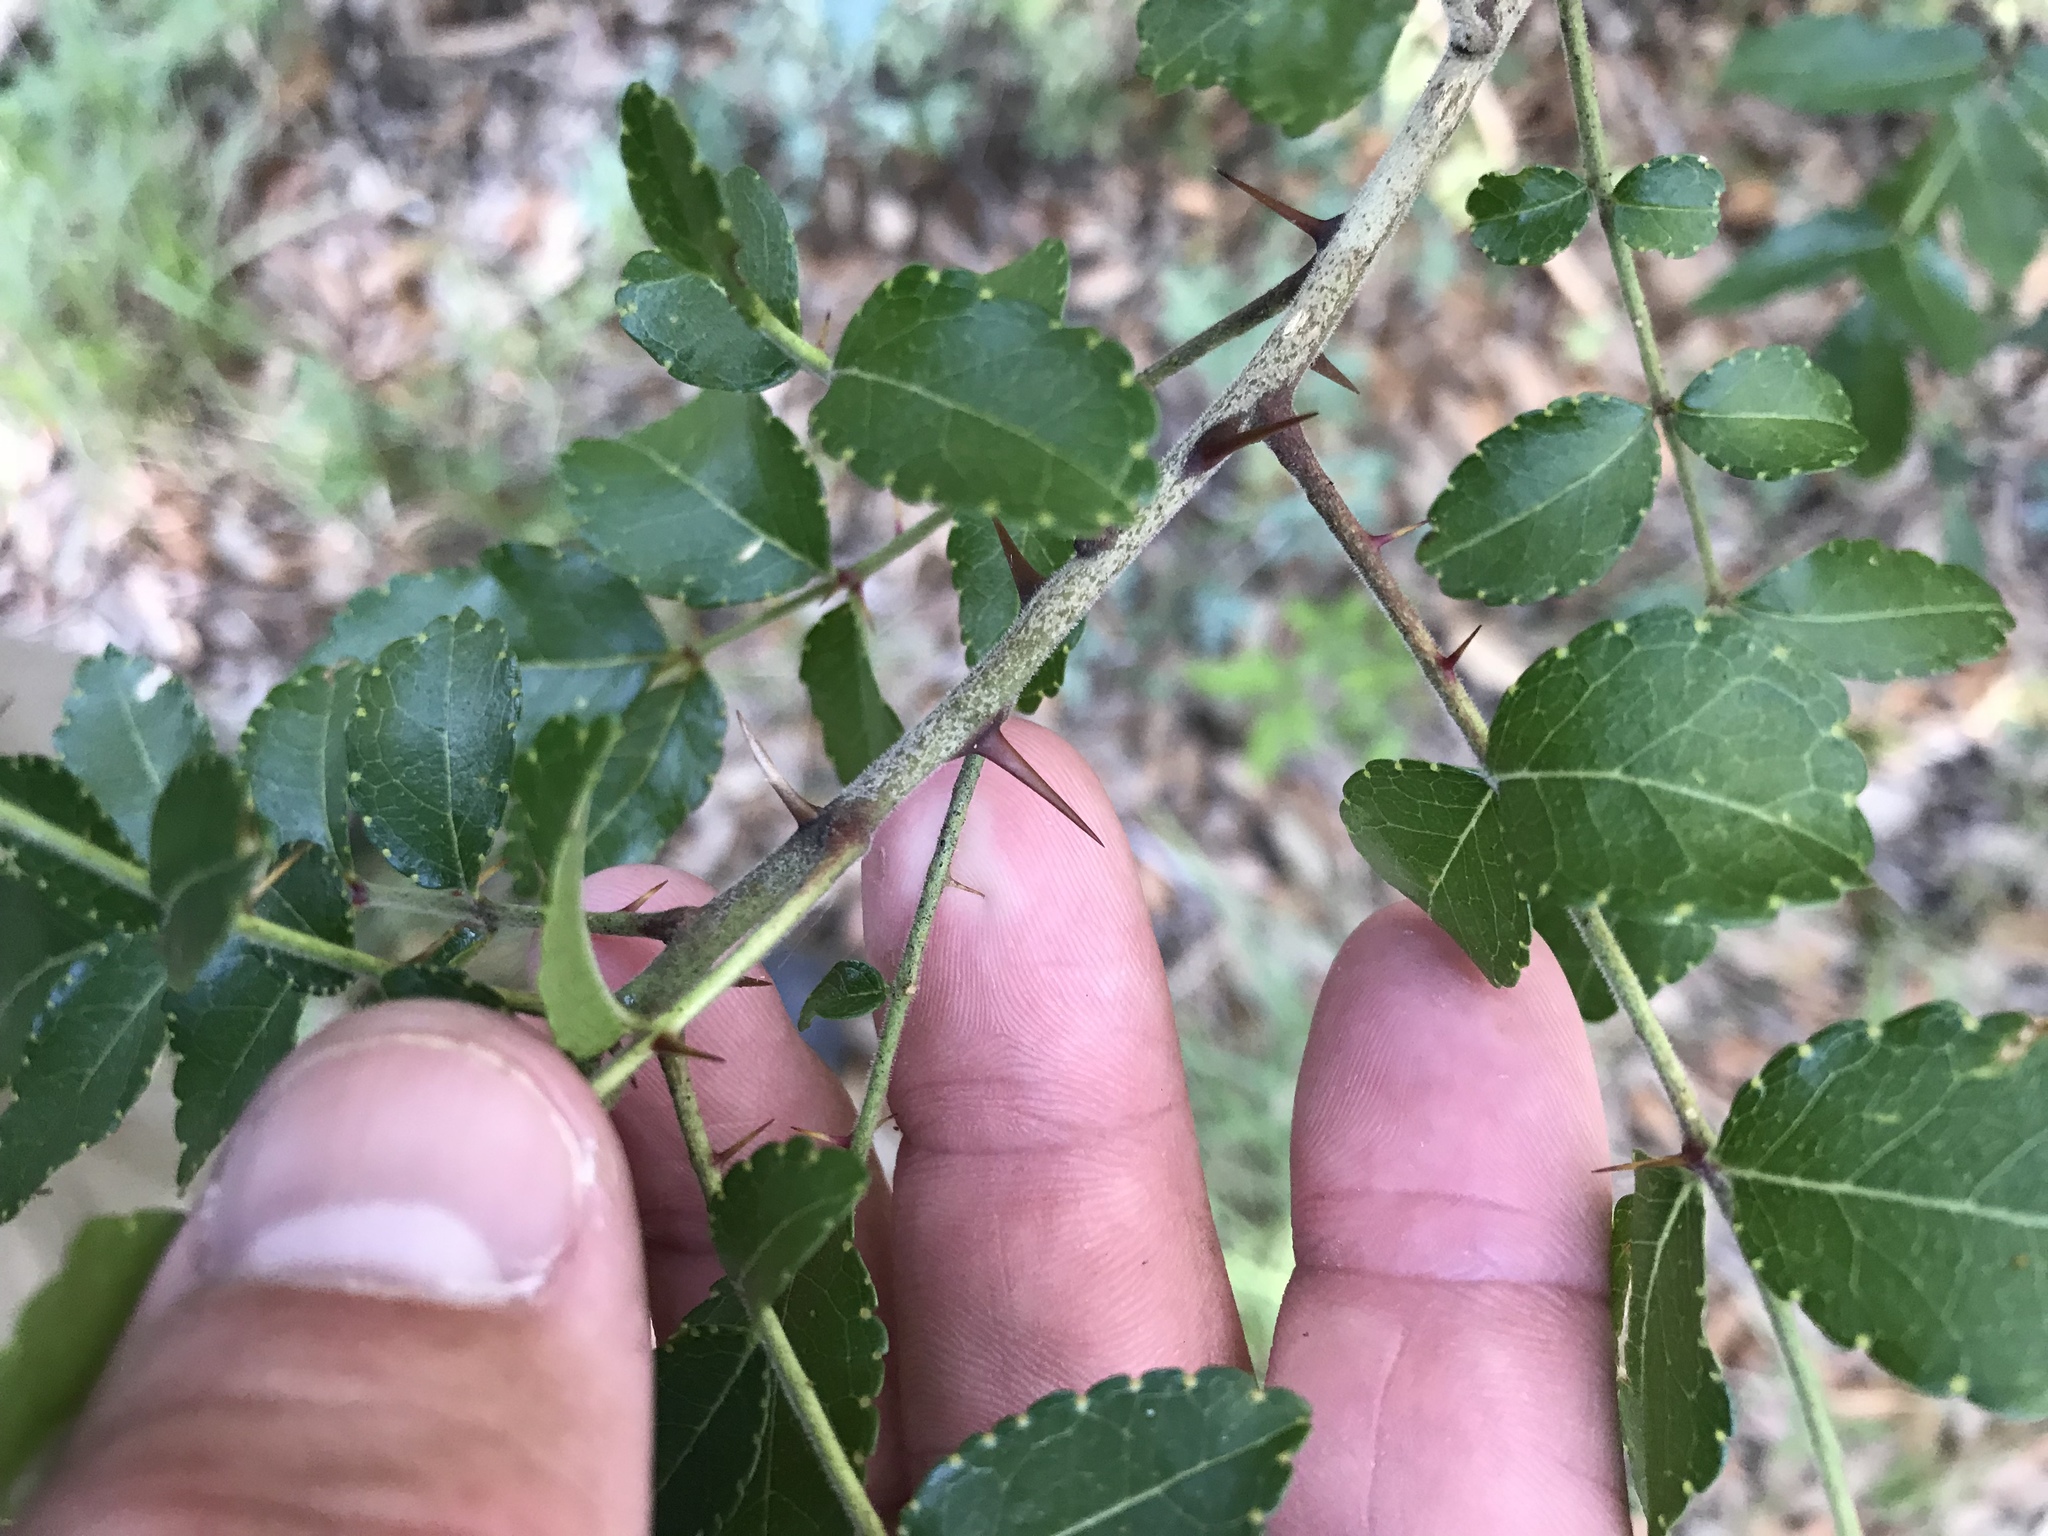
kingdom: Plantae
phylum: Tracheophyta
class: Magnoliopsida
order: Sapindales
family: Rutaceae
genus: Zanthoxylum
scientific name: Zanthoxylum clava-herculis
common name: Hercules'-club
